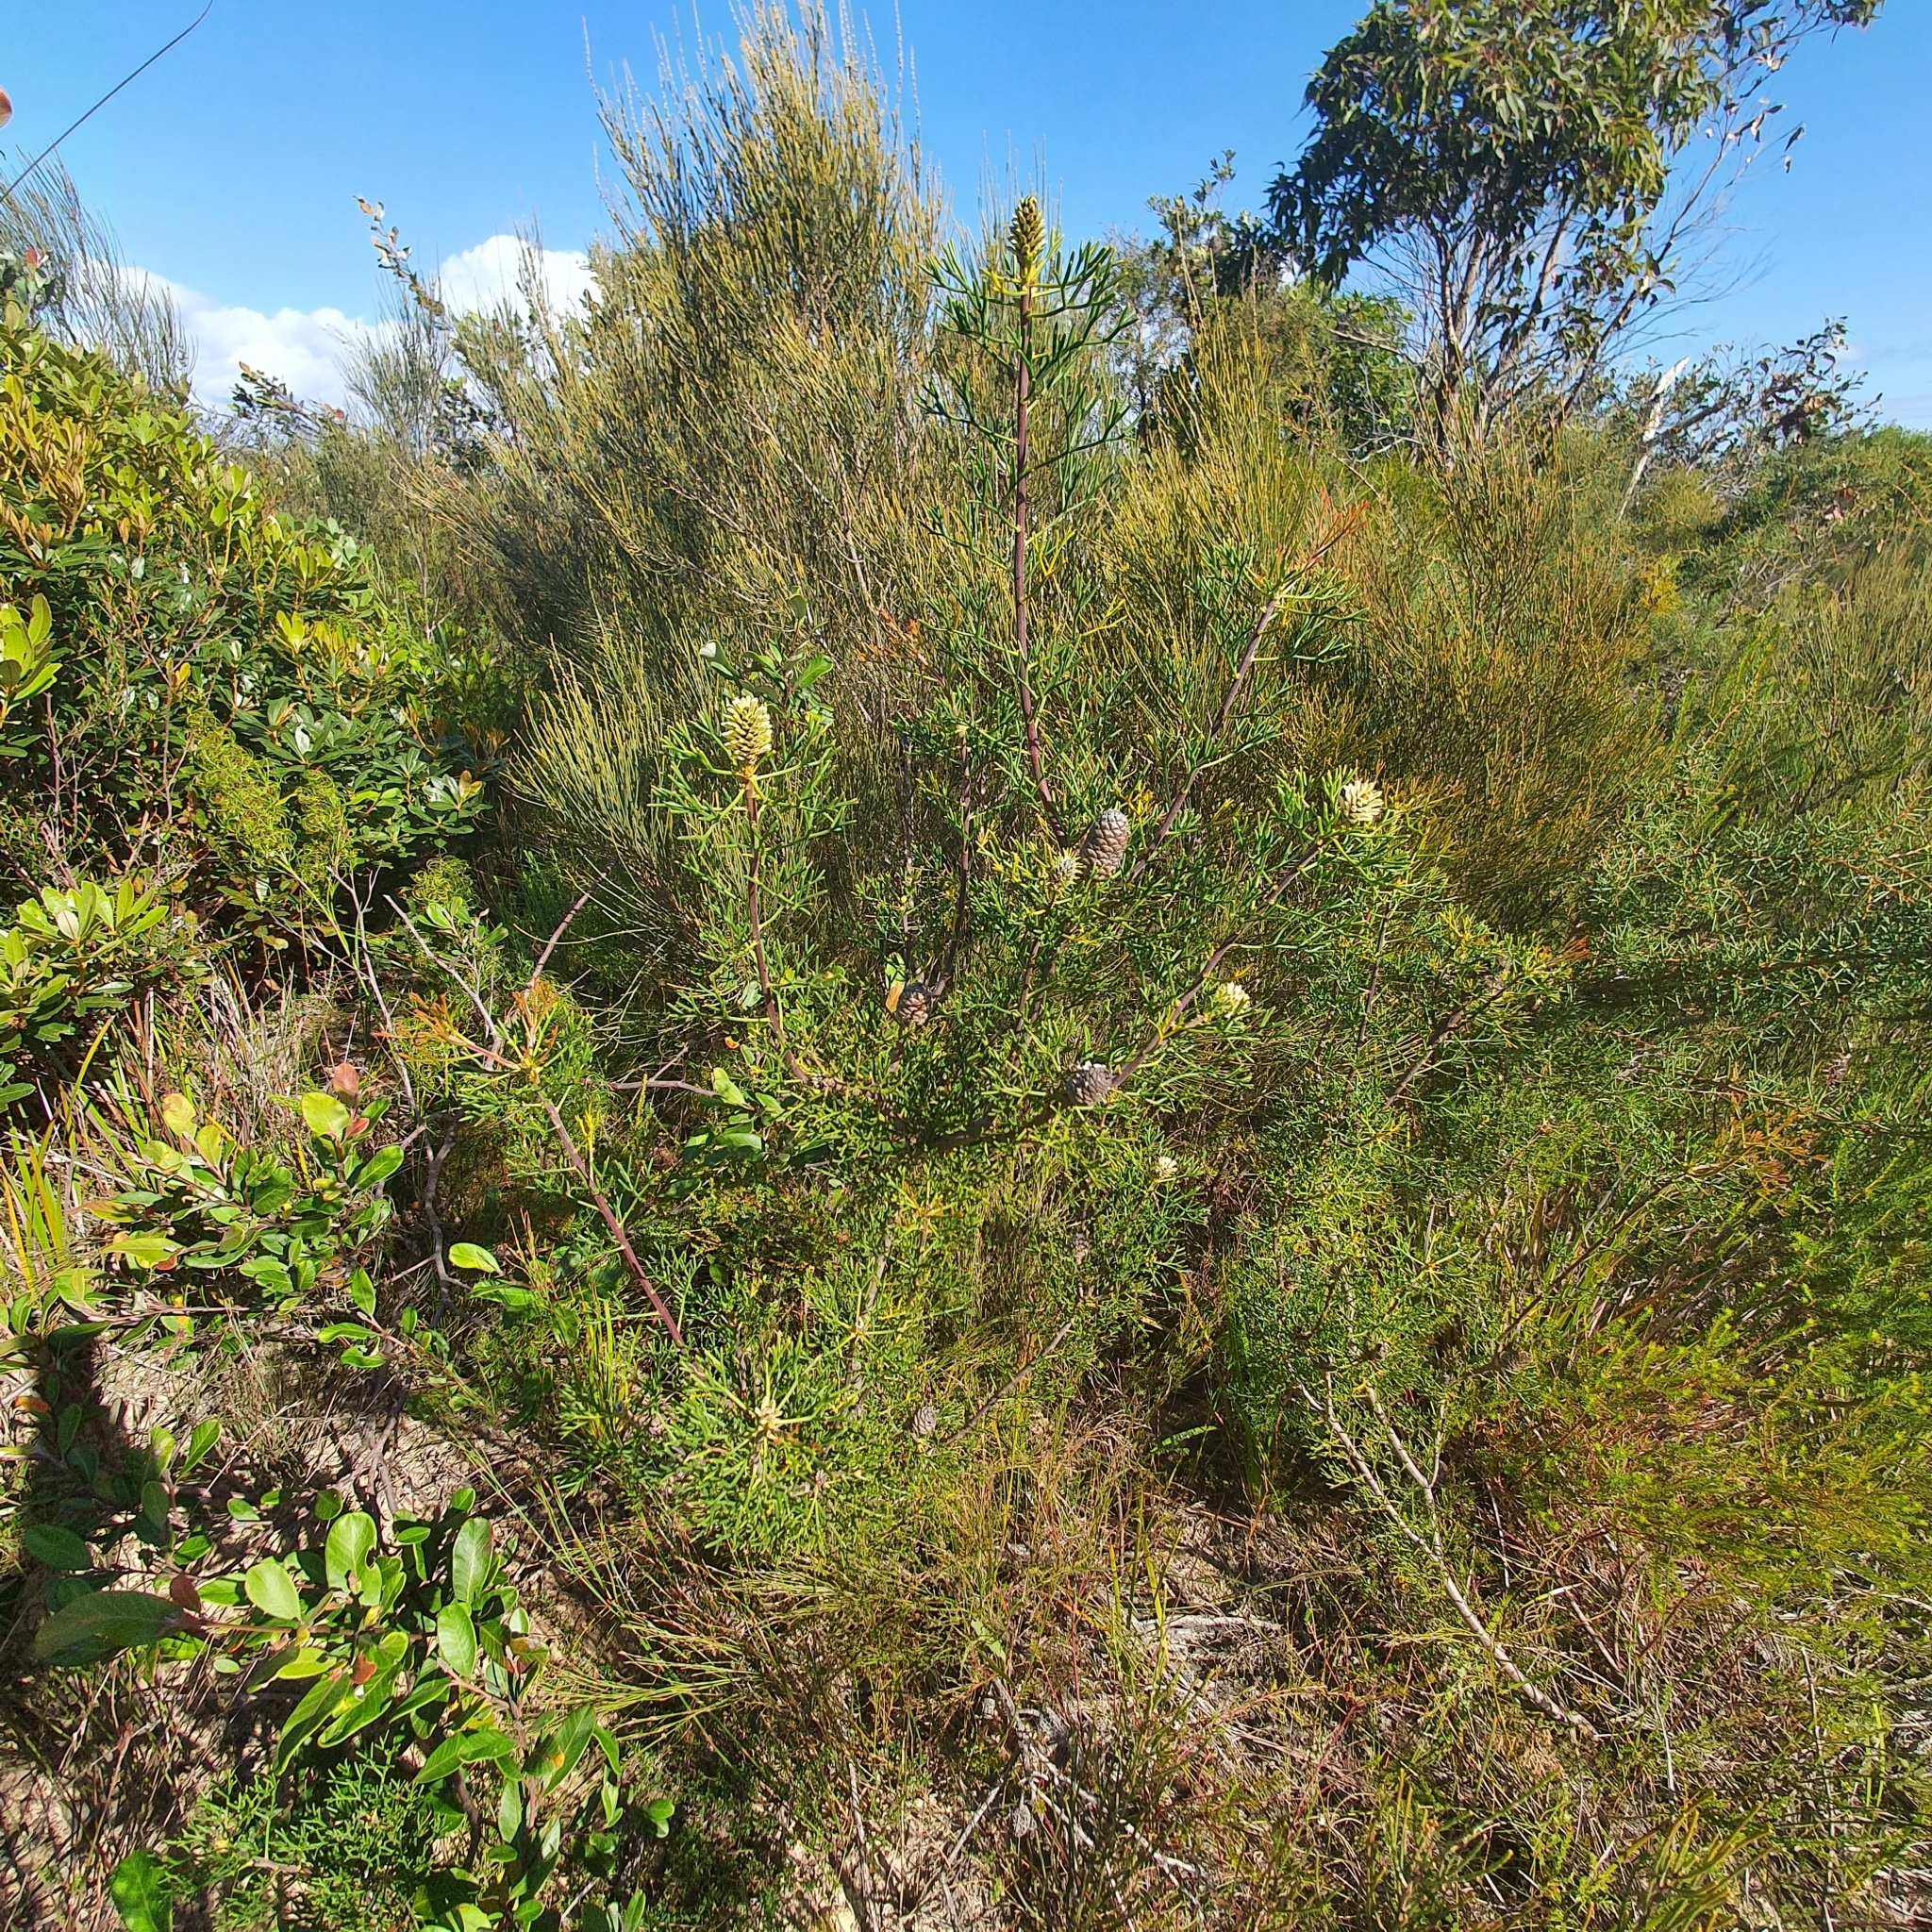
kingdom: Plantae
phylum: Tracheophyta
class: Magnoliopsida
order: Proteales
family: Proteaceae
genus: Petrophile
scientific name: Petrophile pulchella
